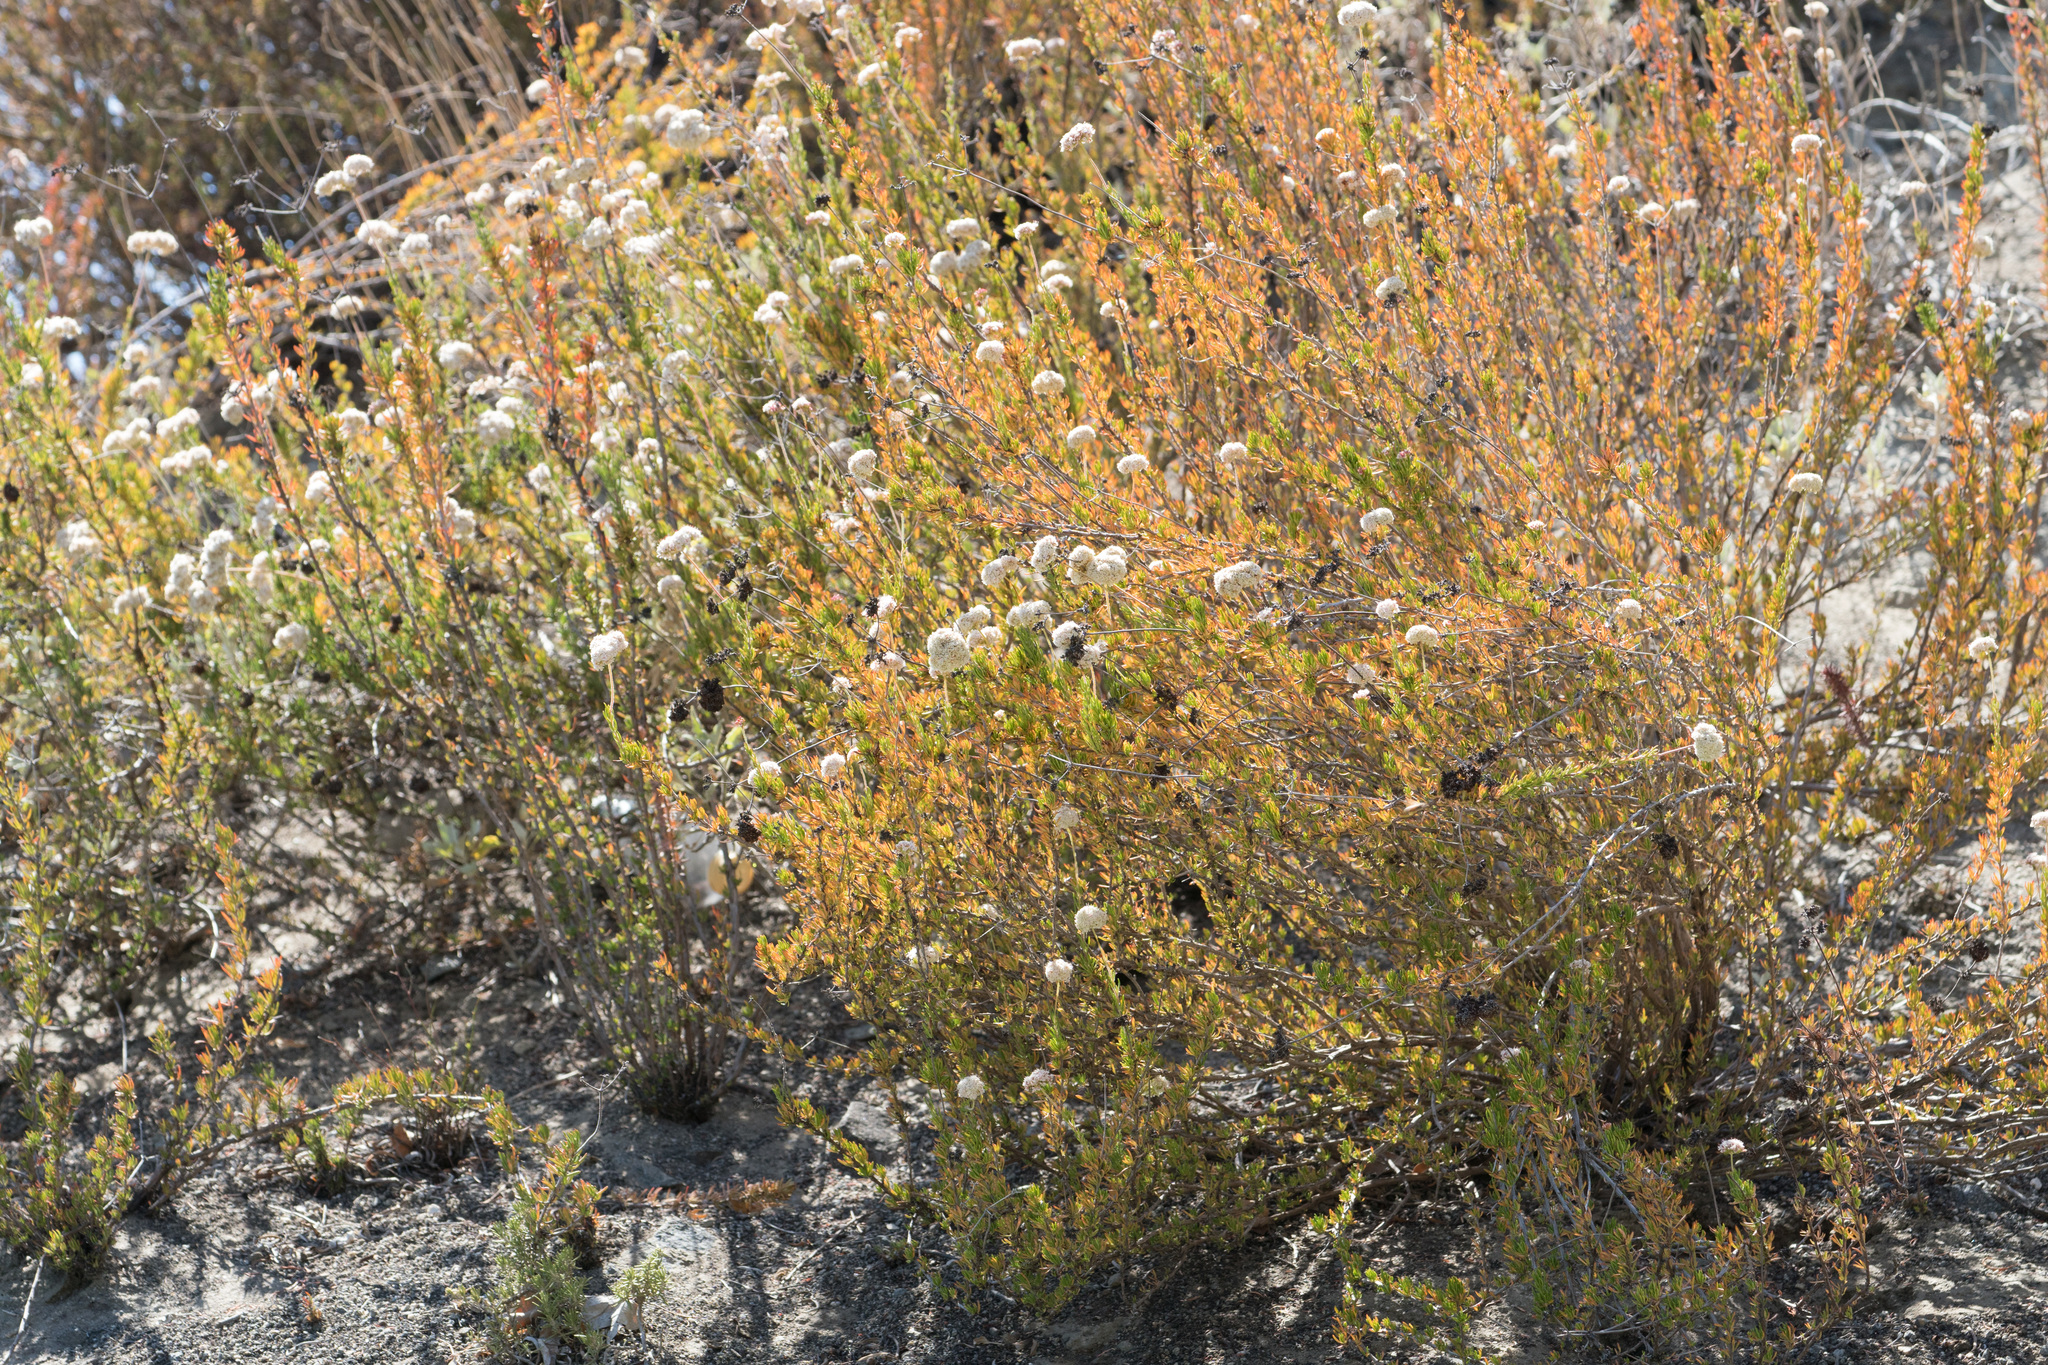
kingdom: Plantae
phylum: Tracheophyta
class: Magnoliopsida
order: Caryophyllales
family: Polygonaceae
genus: Eriogonum
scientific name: Eriogonum fasciculatum
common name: California wild buckwheat
